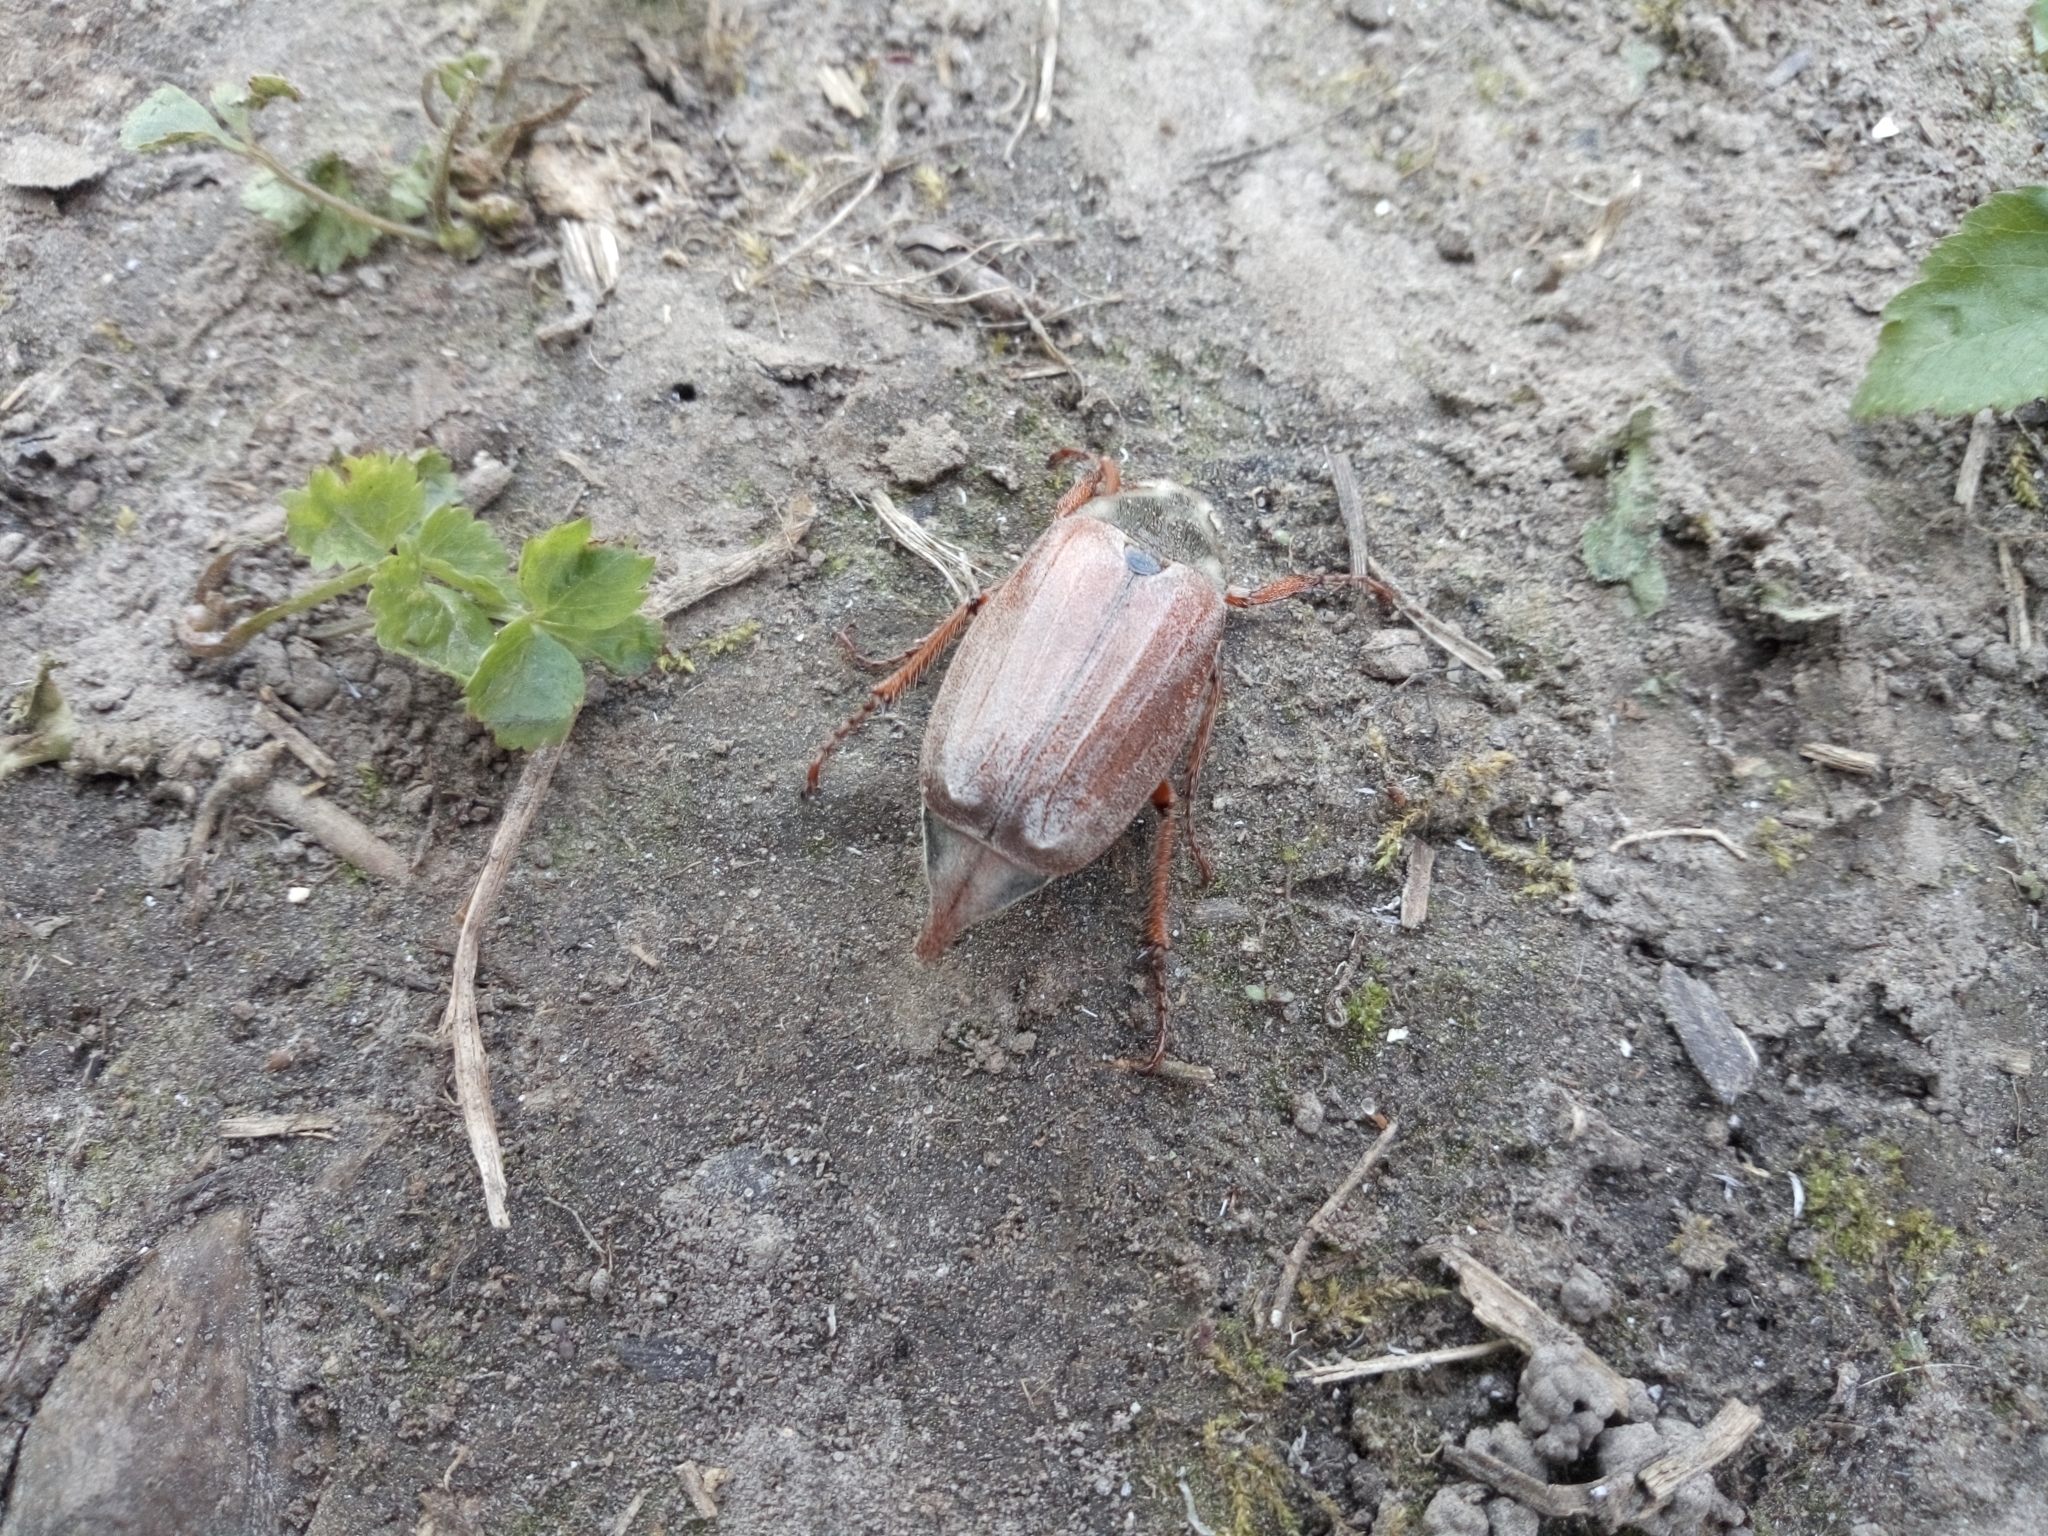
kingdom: Animalia
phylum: Arthropoda
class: Insecta
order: Coleoptera
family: Scarabaeidae
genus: Melolontha
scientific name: Melolontha melolontha
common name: Cockchafer maybeetle
